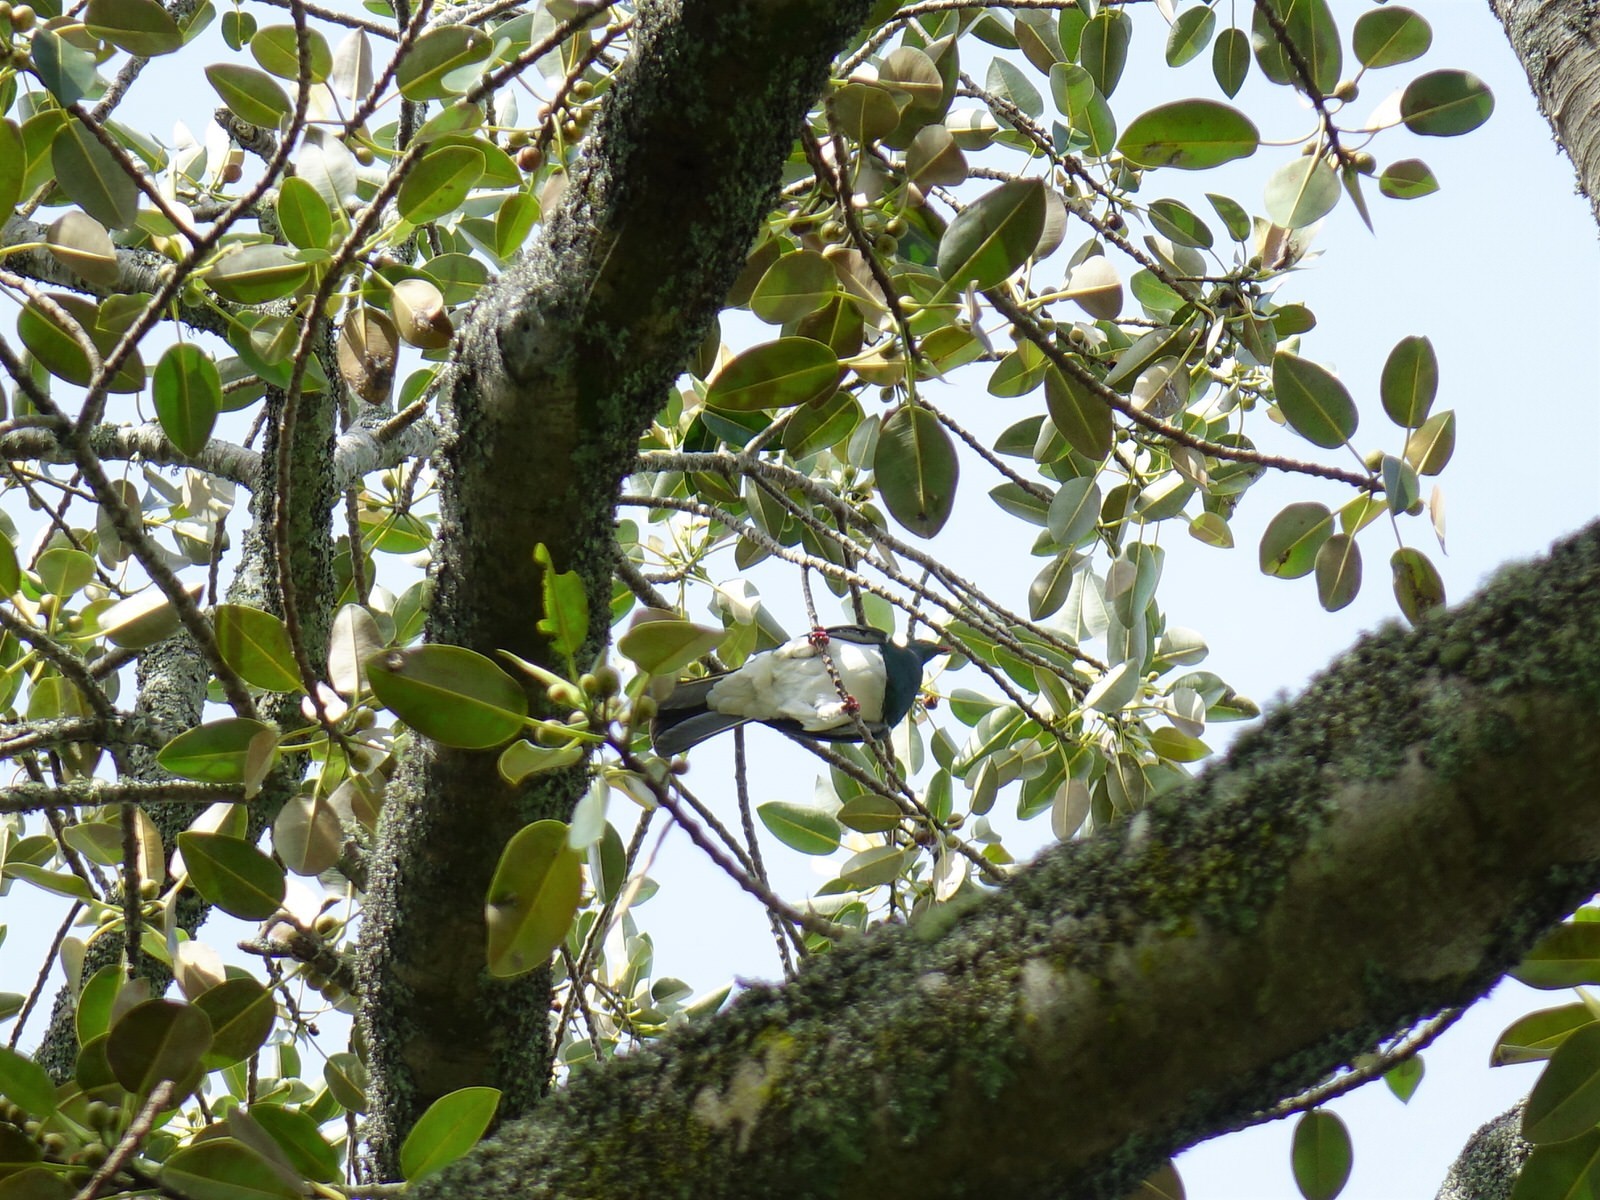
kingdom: Animalia
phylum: Chordata
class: Aves
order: Columbiformes
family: Columbidae
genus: Hemiphaga
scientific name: Hemiphaga novaeseelandiae
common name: New zealand pigeon
